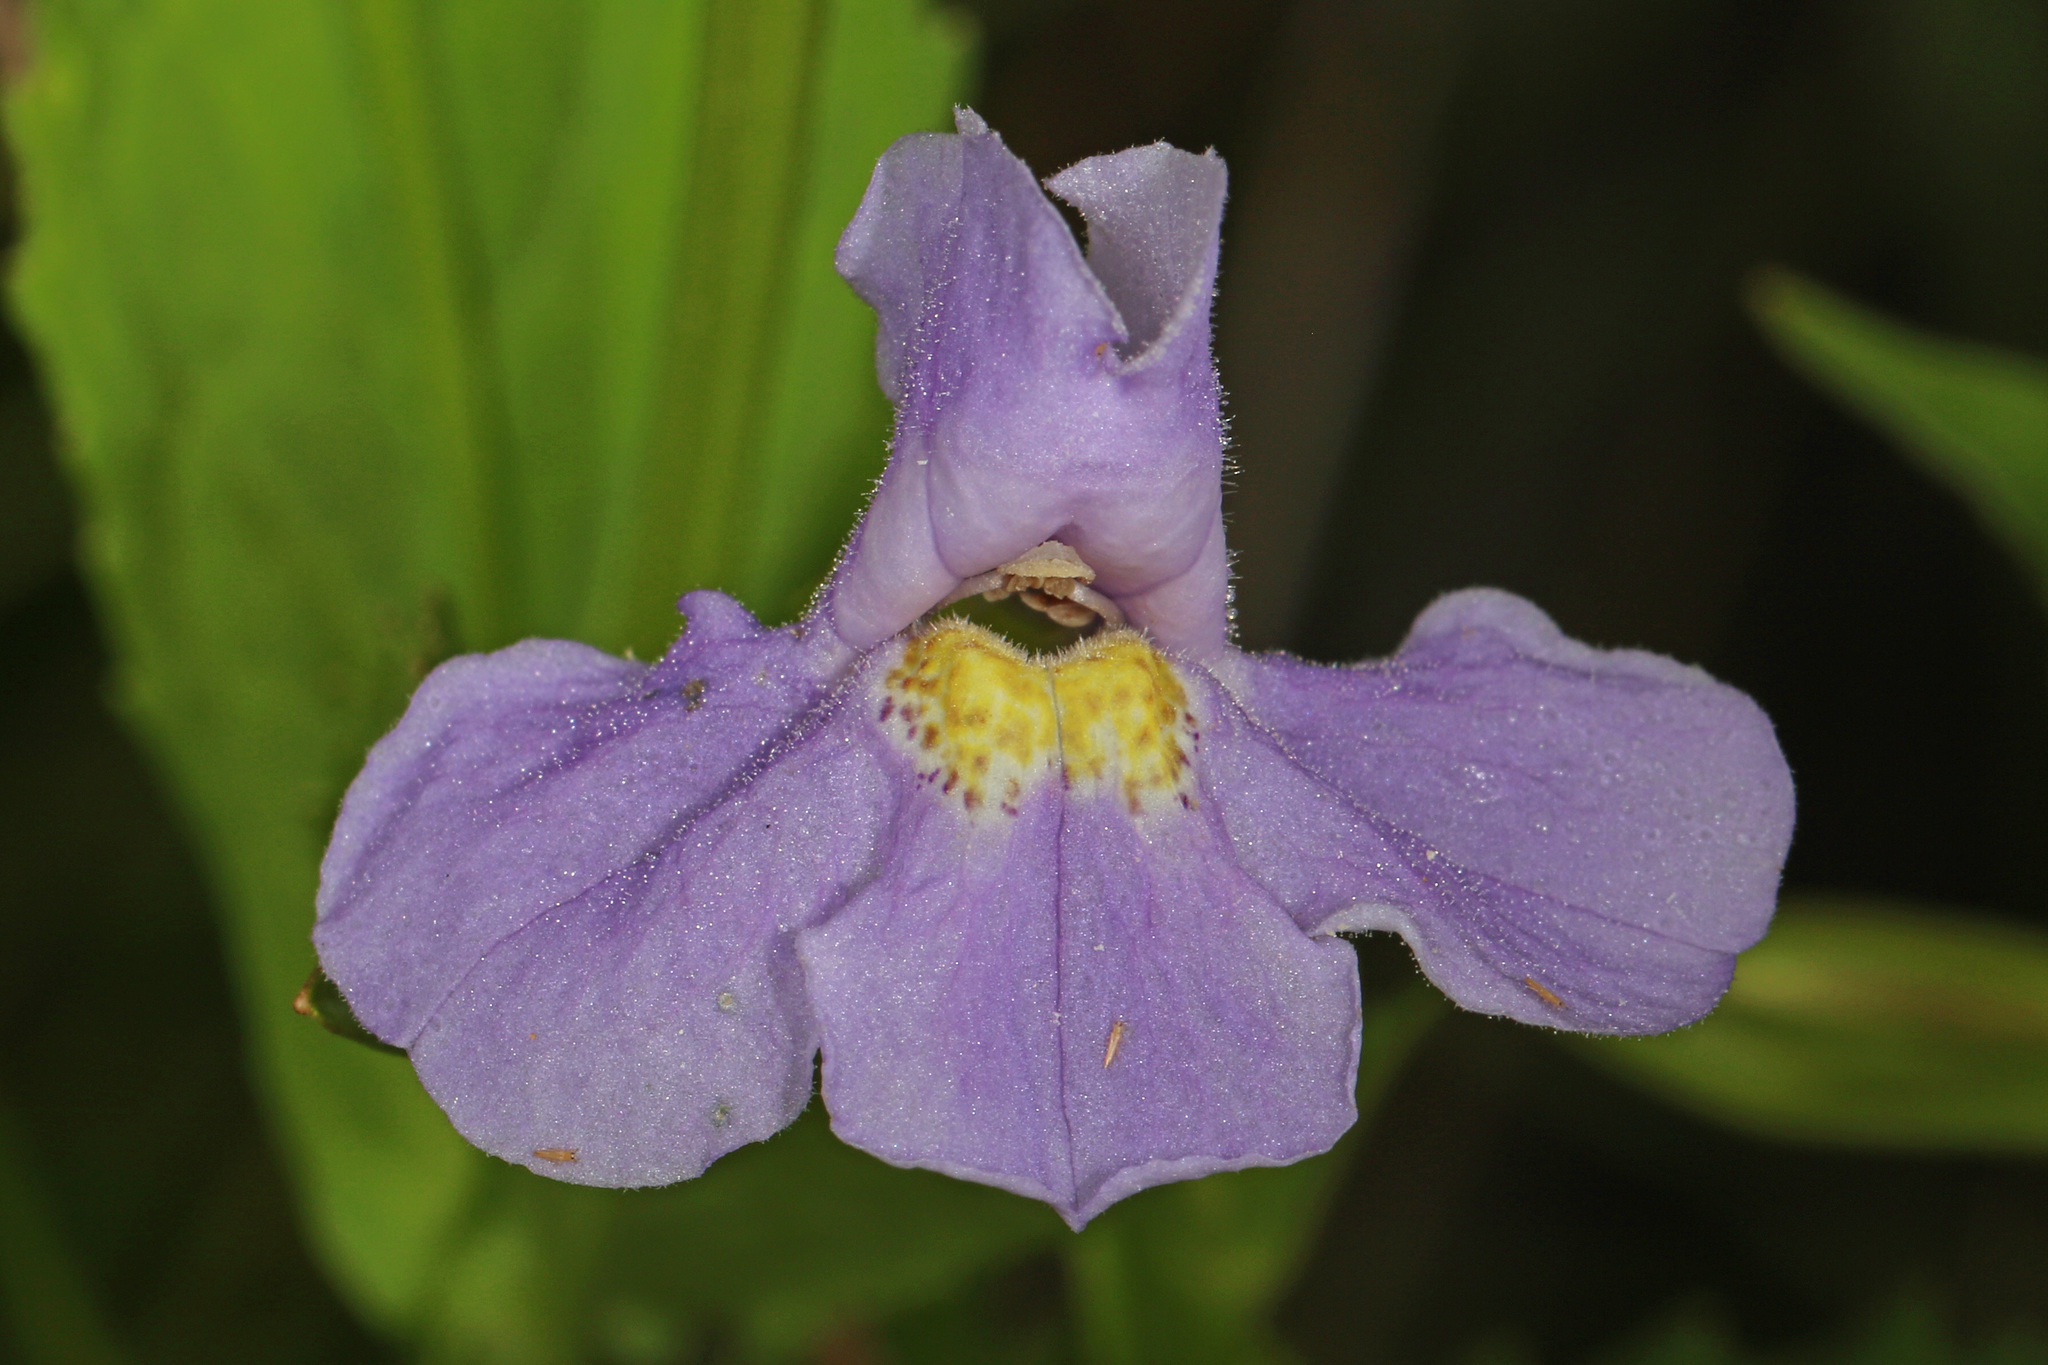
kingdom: Plantae
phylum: Tracheophyta
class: Magnoliopsida
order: Lamiales
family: Phrymaceae
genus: Mimulus
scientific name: Mimulus ringens
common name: Allegheny monkeyflower
